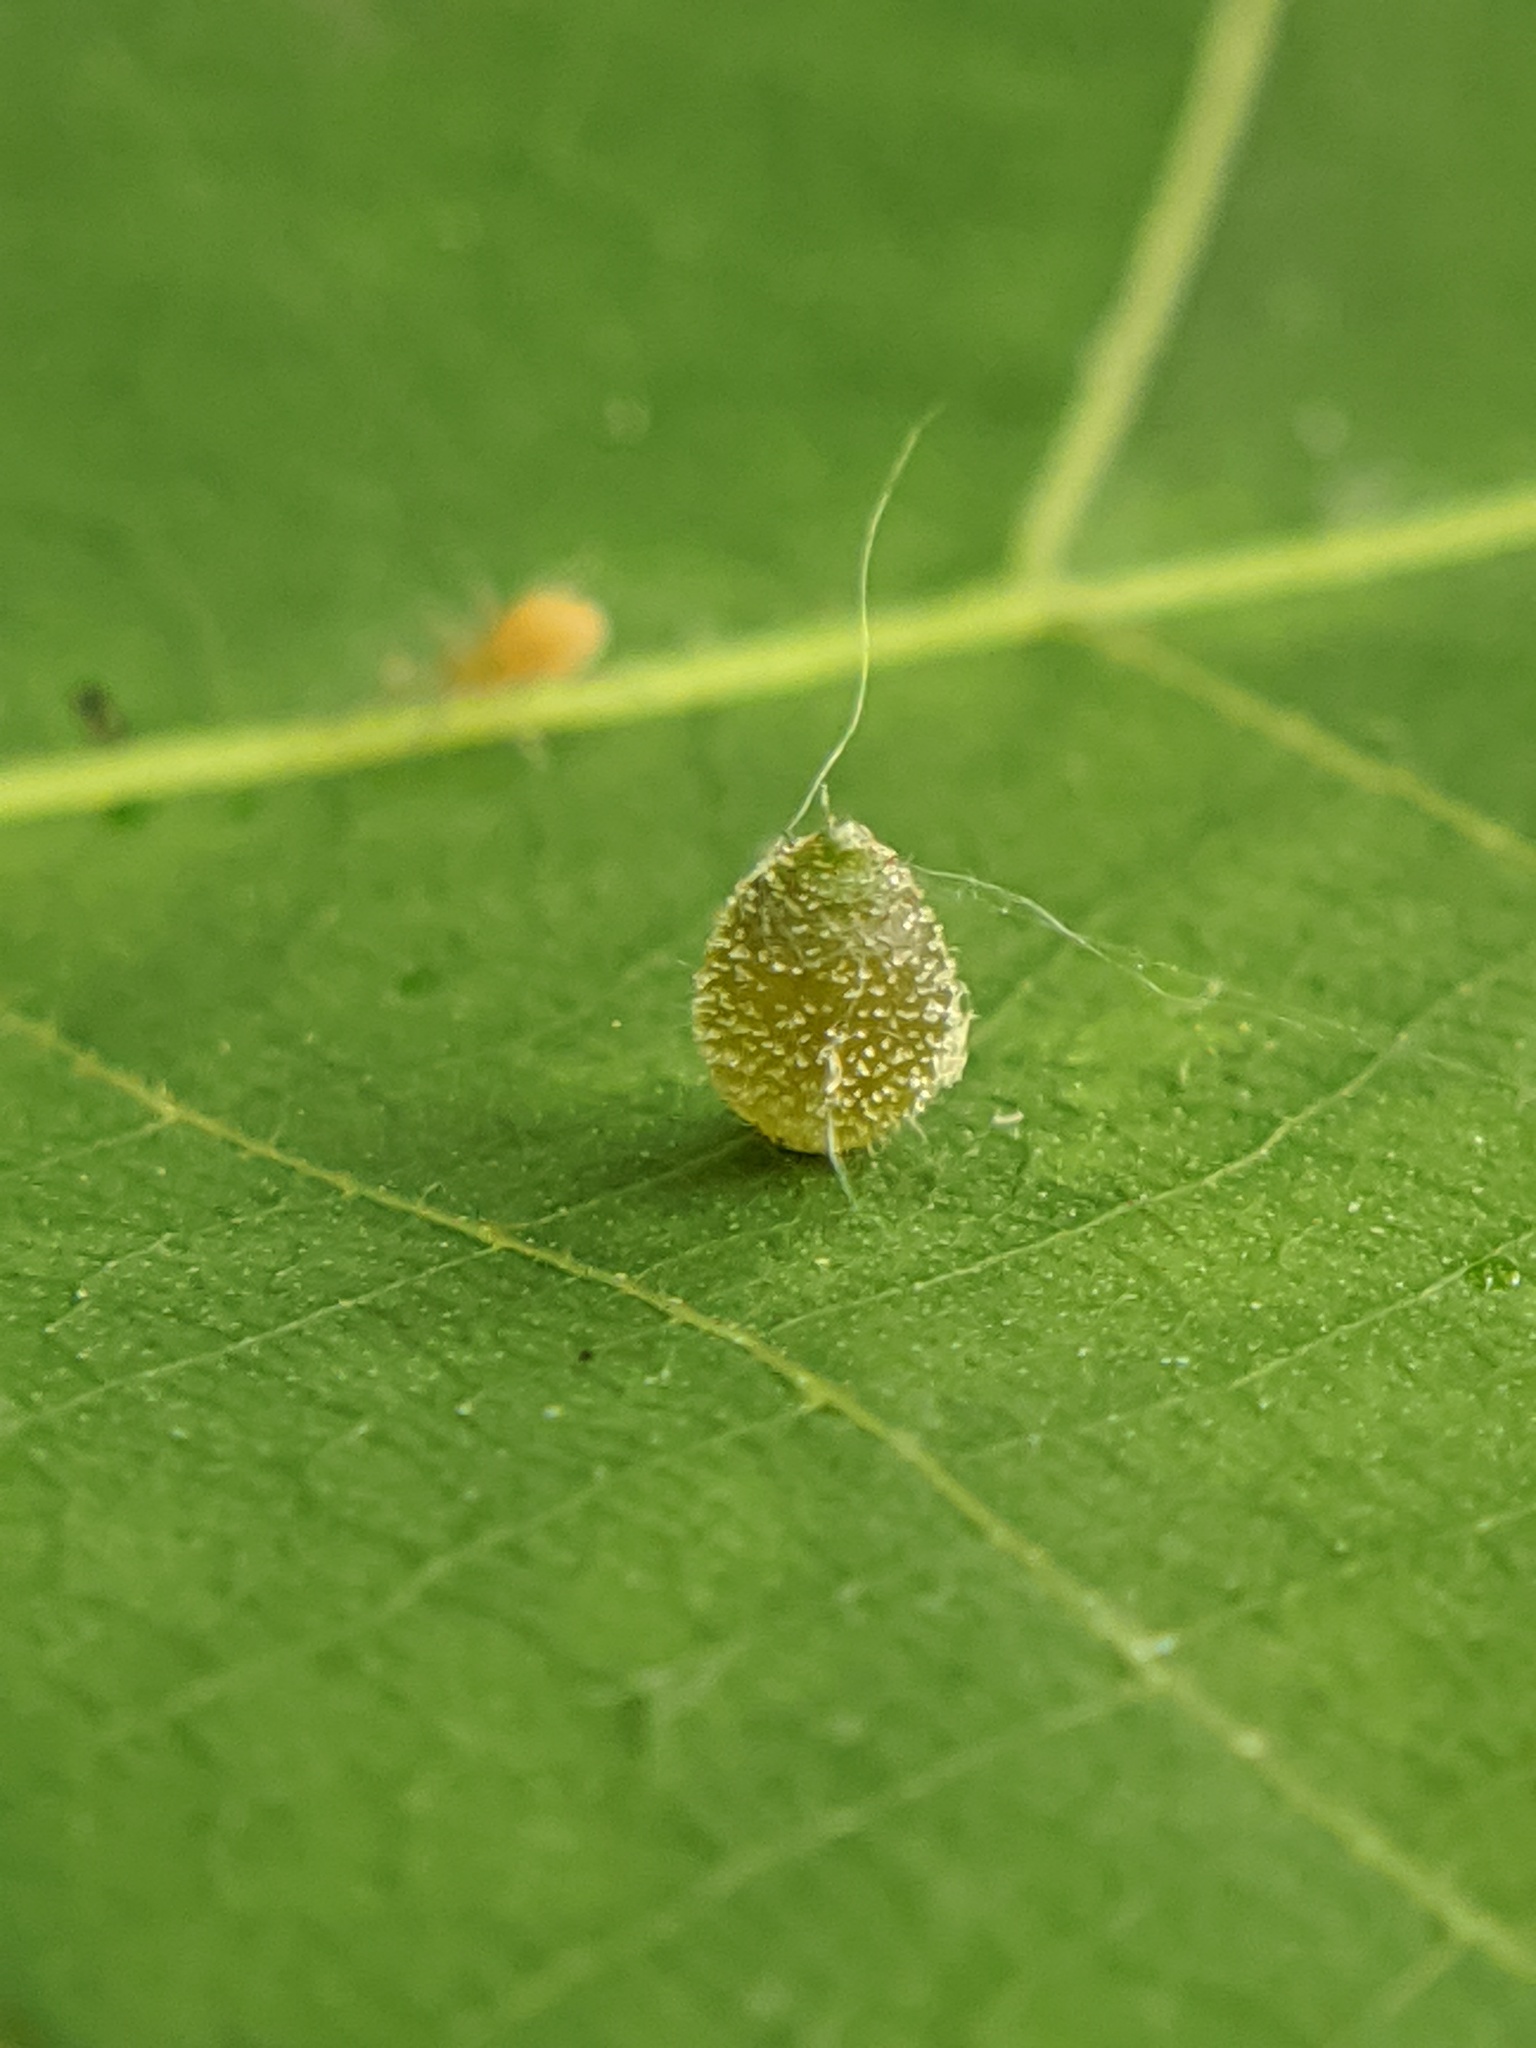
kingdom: Animalia
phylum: Arthropoda
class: Insecta
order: Diptera
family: Cecidomyiidae
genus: Caryomyia
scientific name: Caryomyia viscidolium
